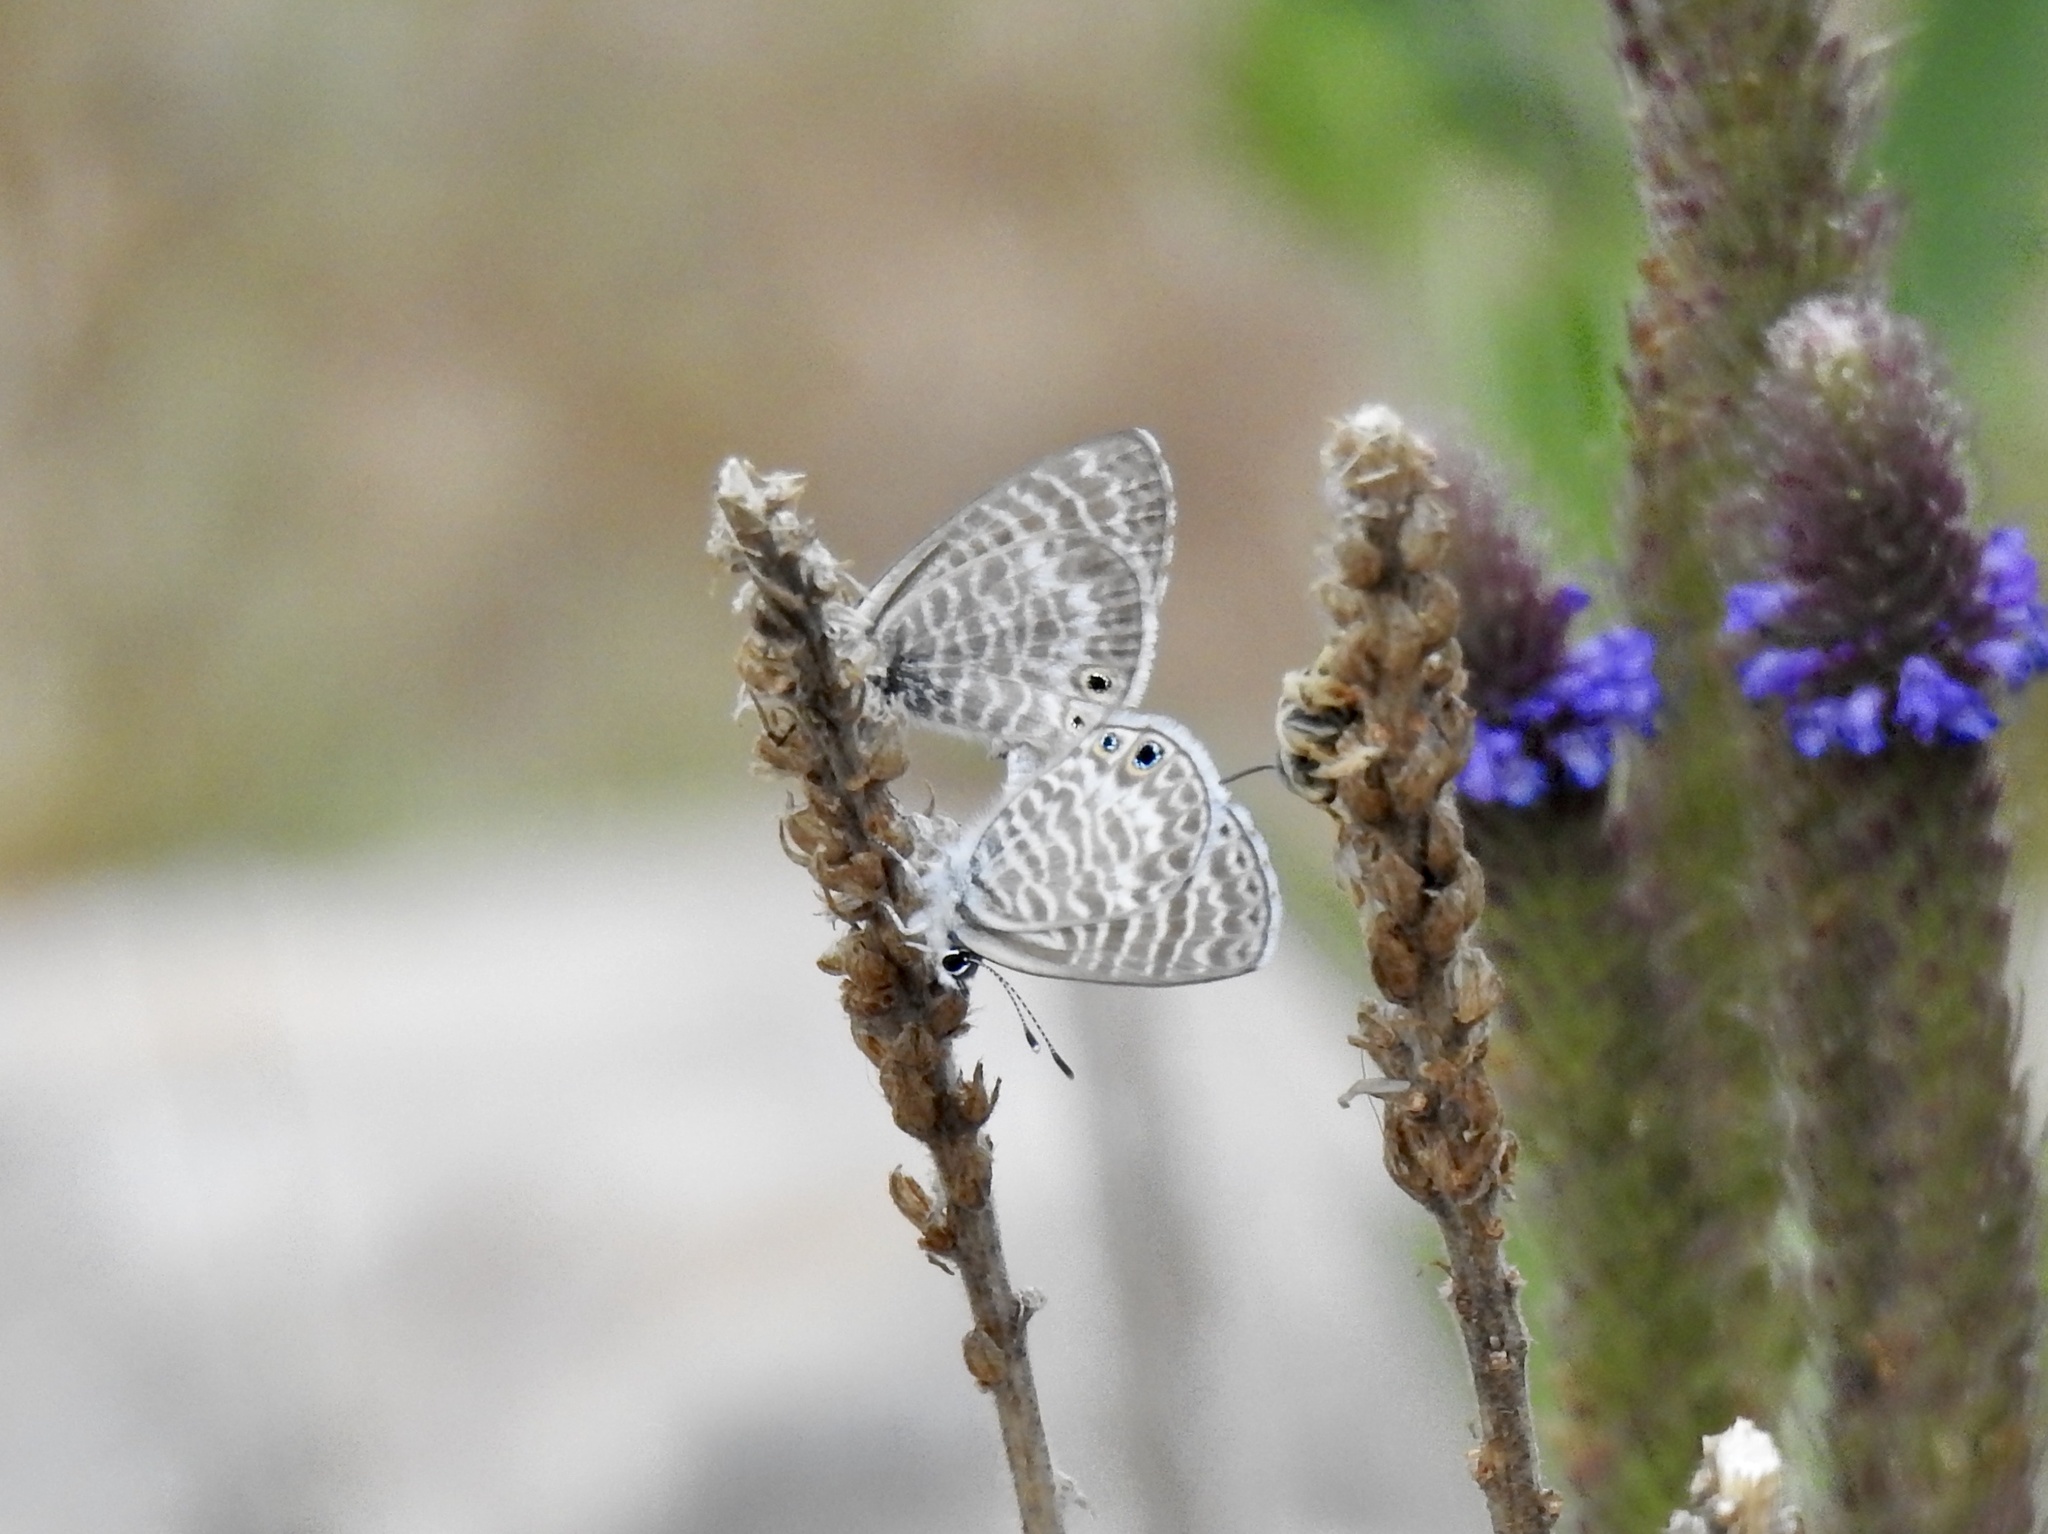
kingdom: Animalia
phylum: Arthropoda
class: Insecta
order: Lepidoptera
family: Lycaenidae
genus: Leptotes
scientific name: Leptotes marina
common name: Marine blue
